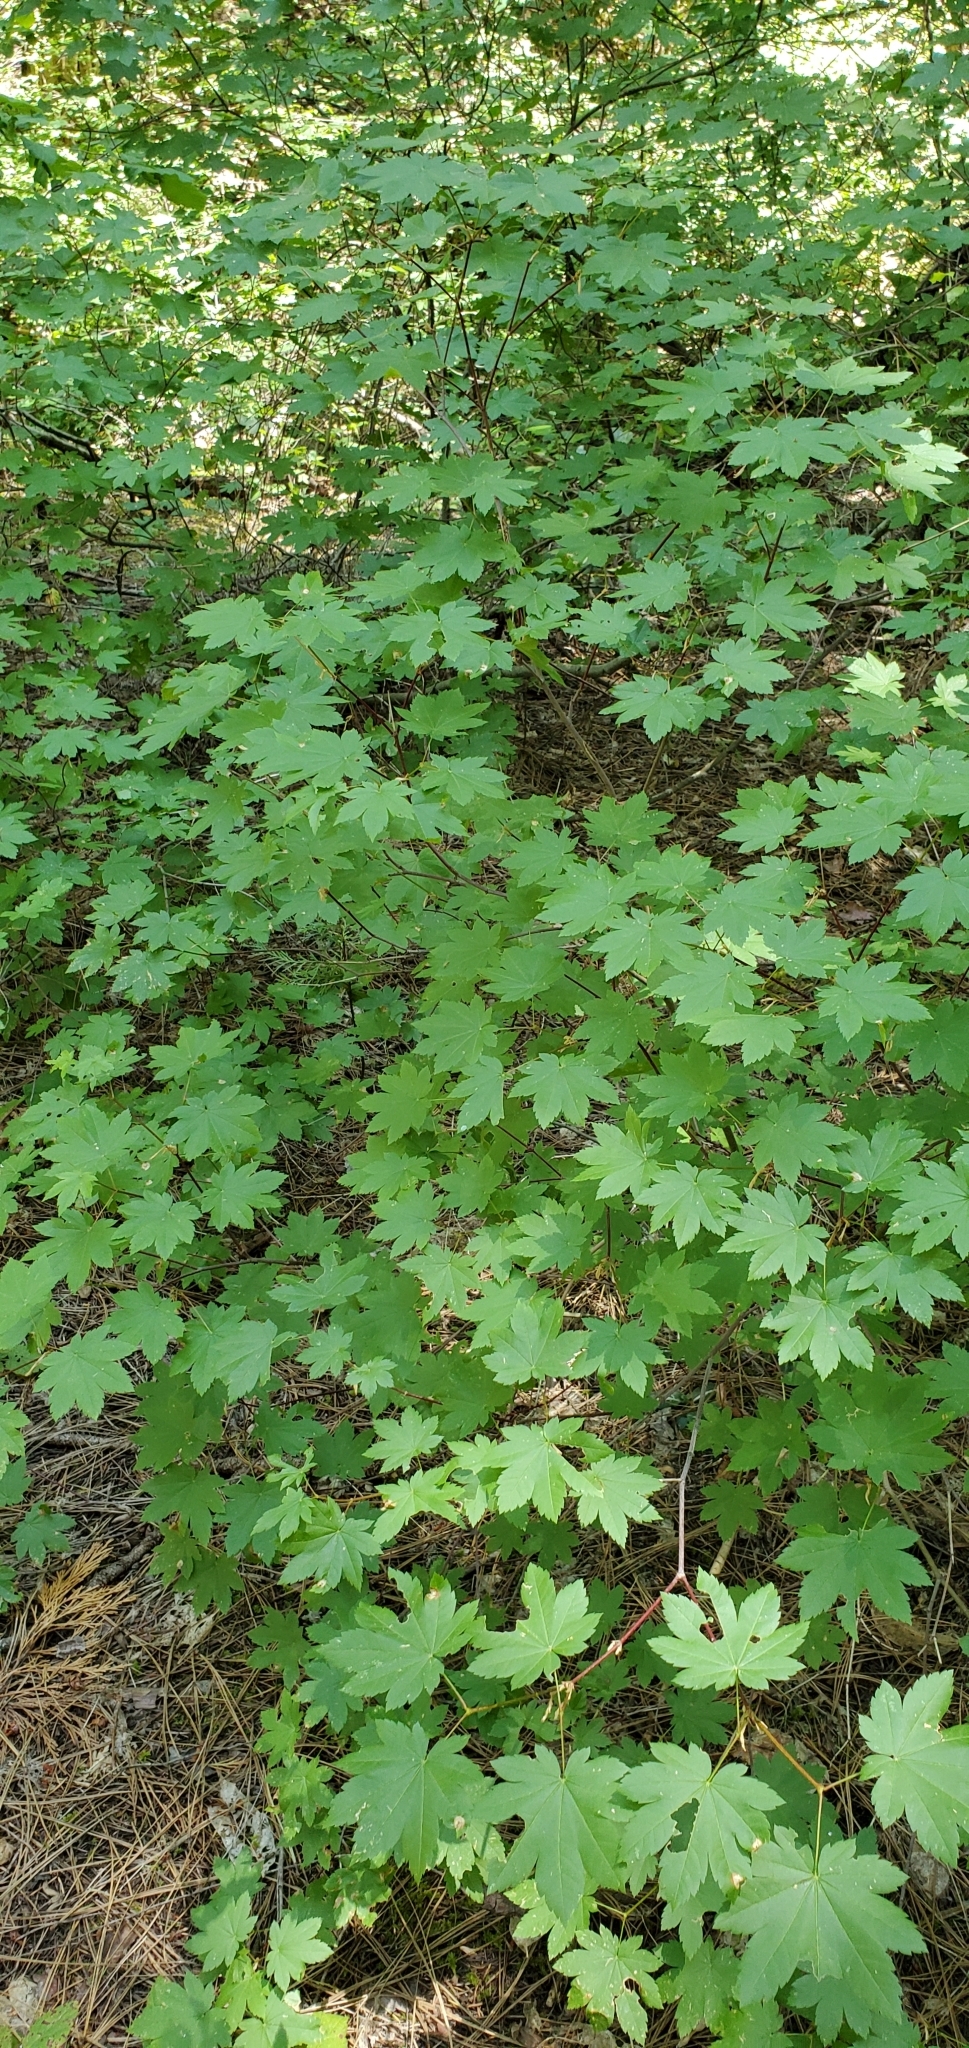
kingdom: Plantae
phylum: Tracheophyta
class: Magnoliopsida
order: Sapindales
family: Sapindaceae
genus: Acer
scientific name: Acer circinatum
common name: Vine maple
